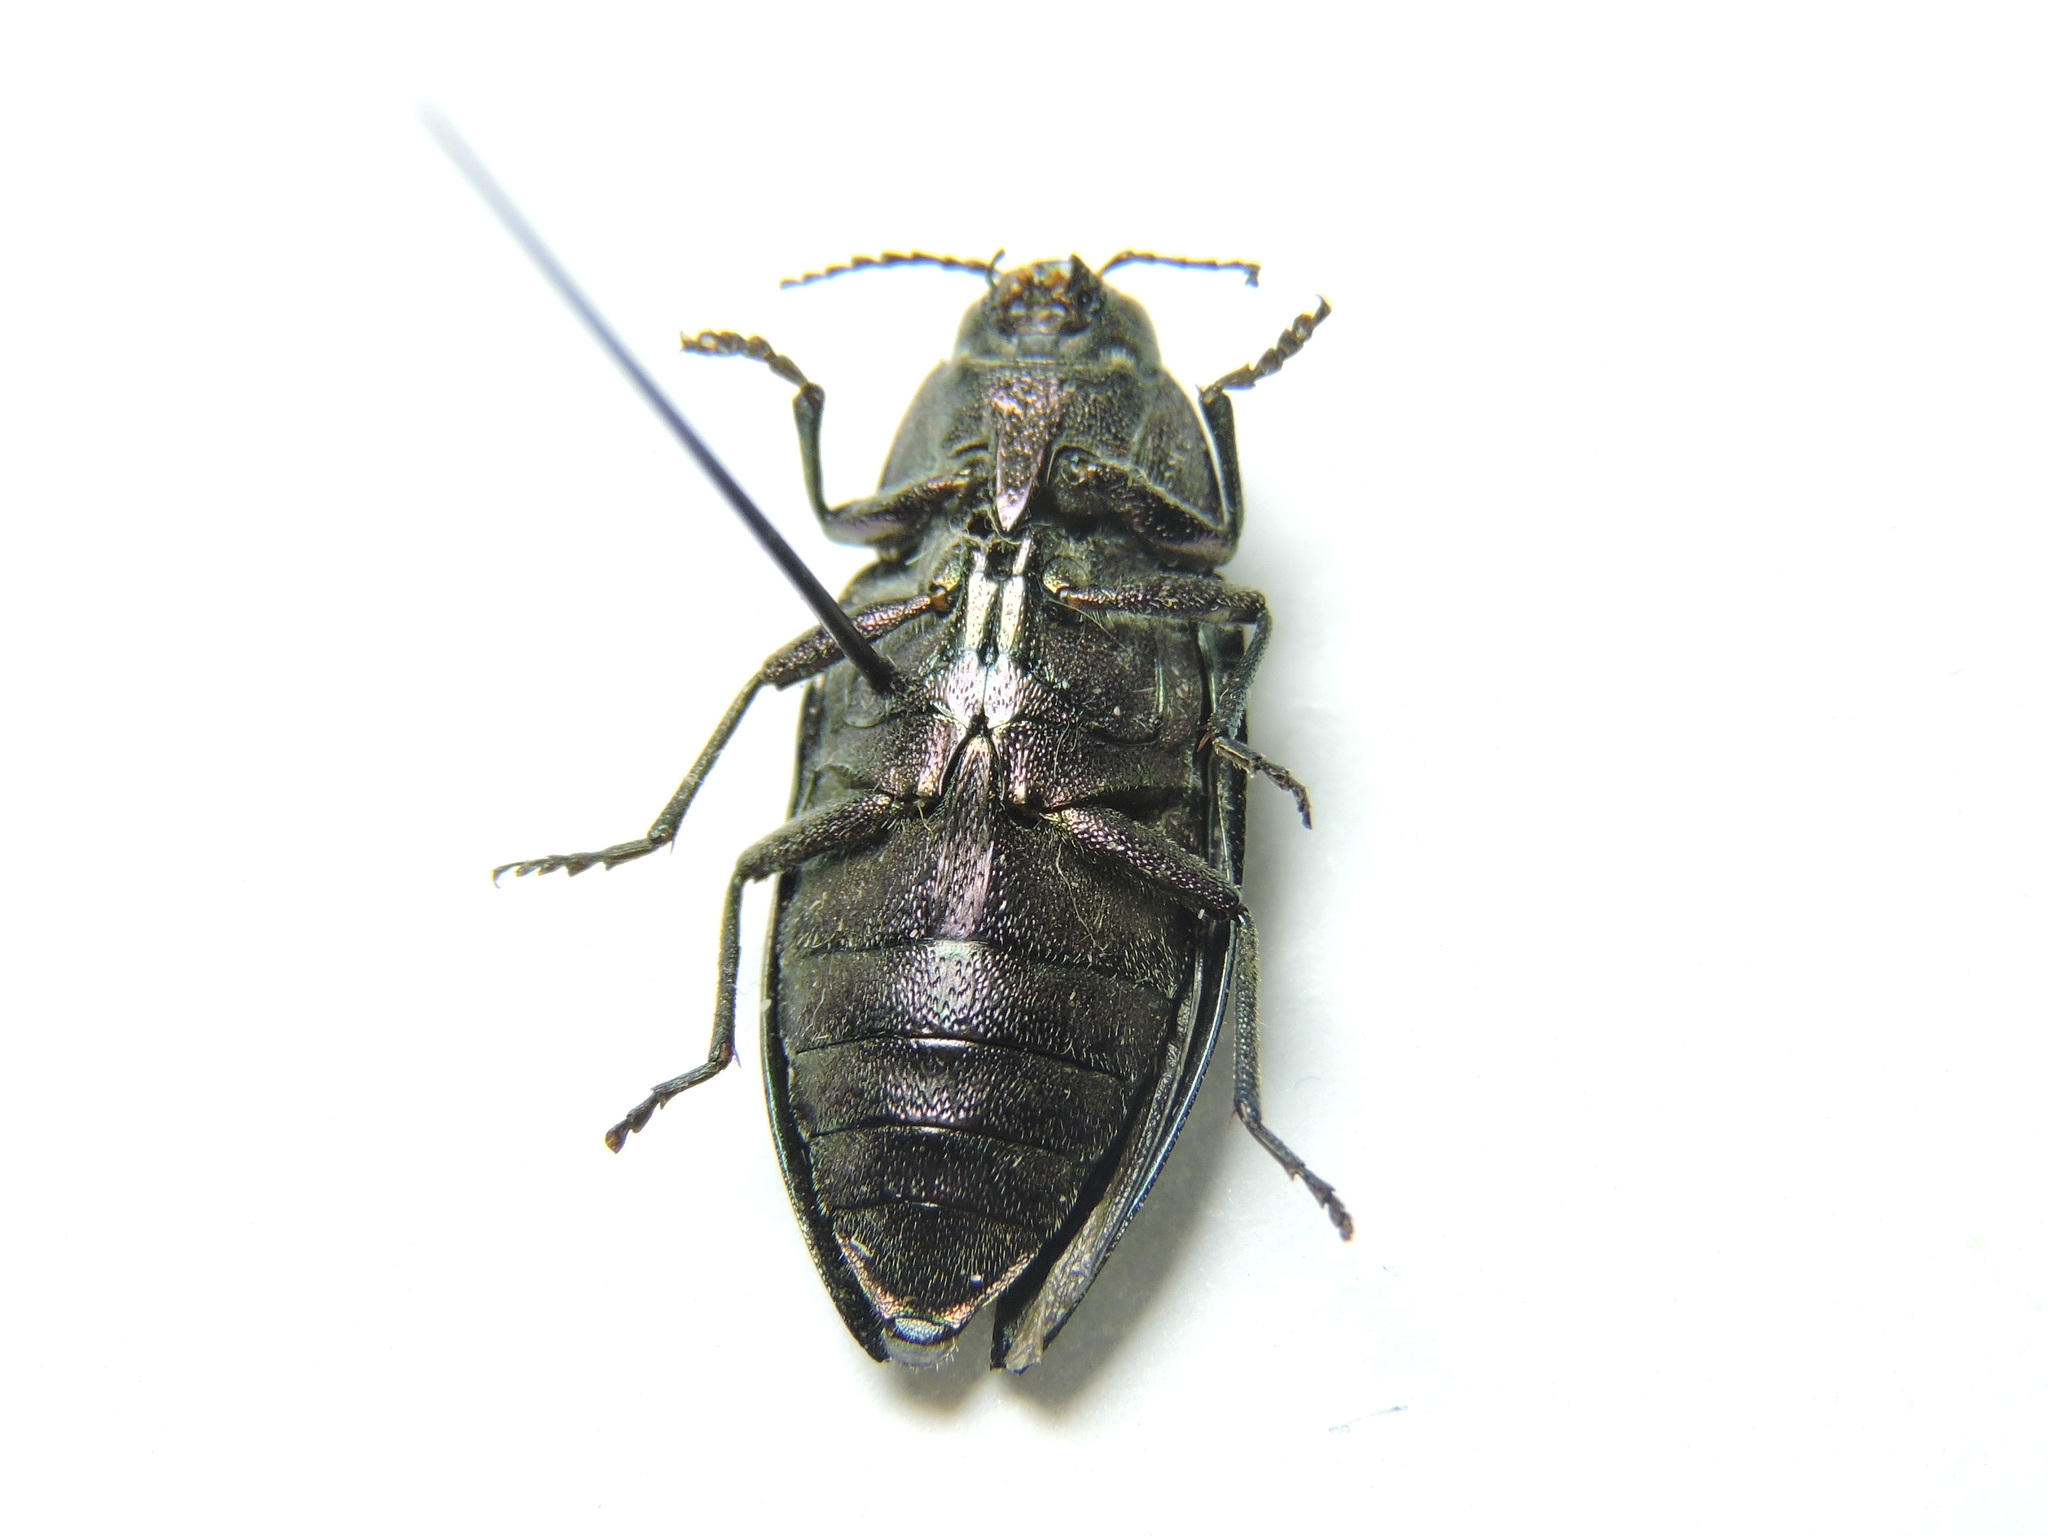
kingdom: Animalia
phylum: Arthropoda
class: Insecta
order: Coleoptera
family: Buprestidae
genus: Buprestis
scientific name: Buprestis rustica
